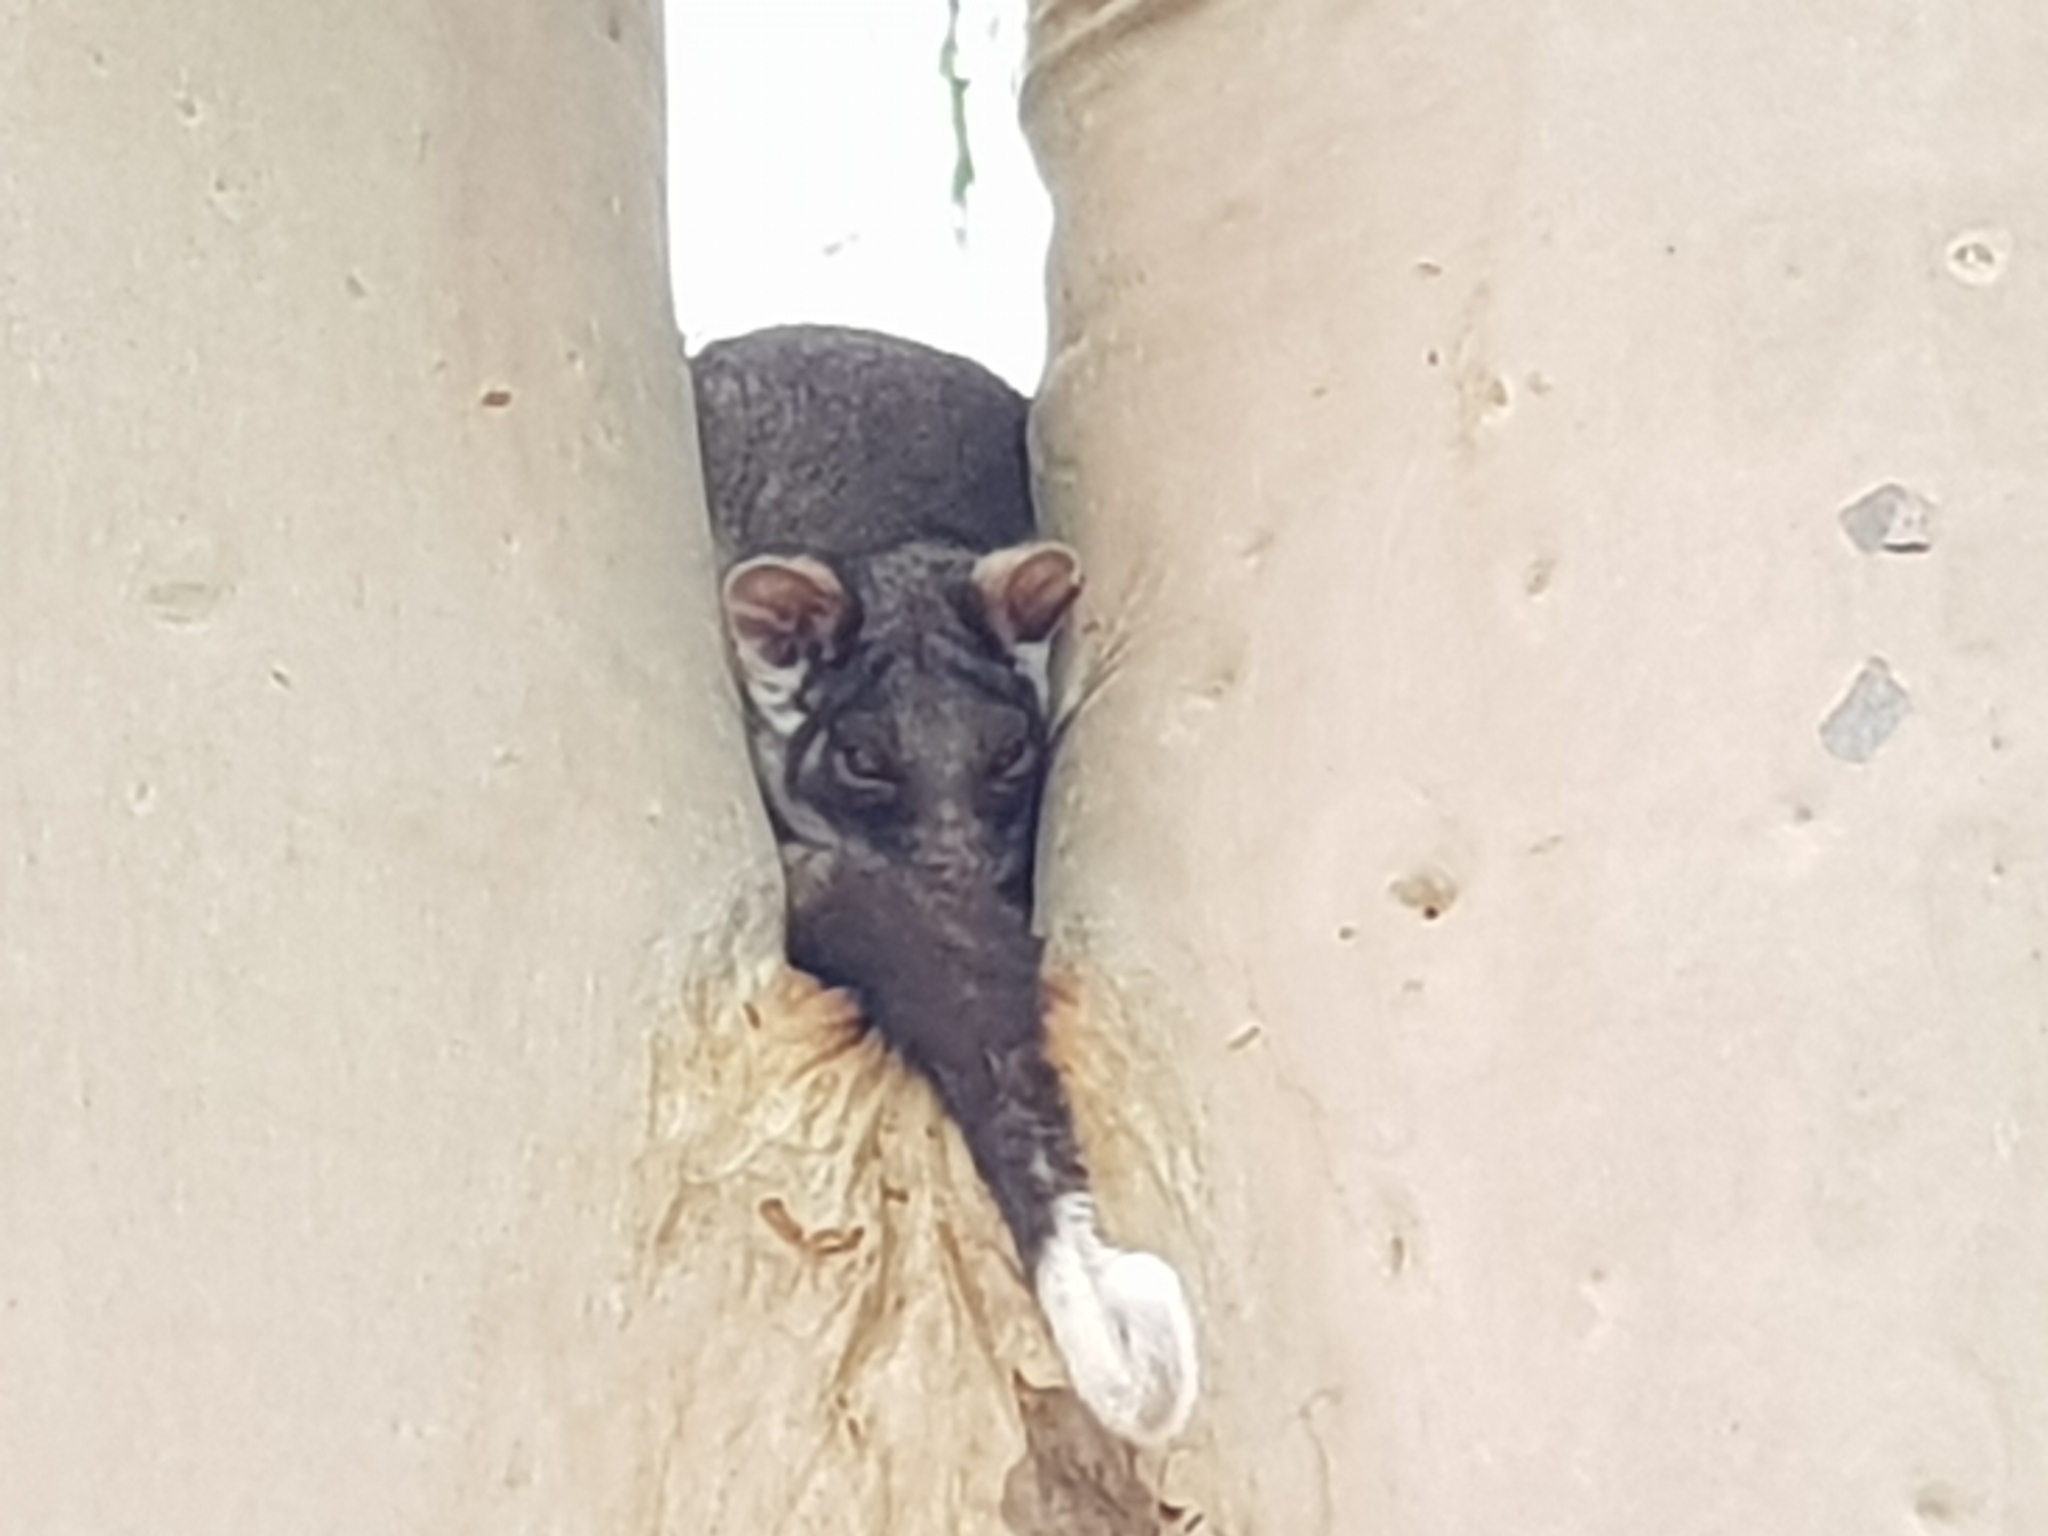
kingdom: Animalia
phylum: Chordata
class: Mammalia
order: Diprotodontia
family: Pseudocheiridae
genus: Pseudocheirus
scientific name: Pseudocheirus peregrinus
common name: Common ringtail possum
